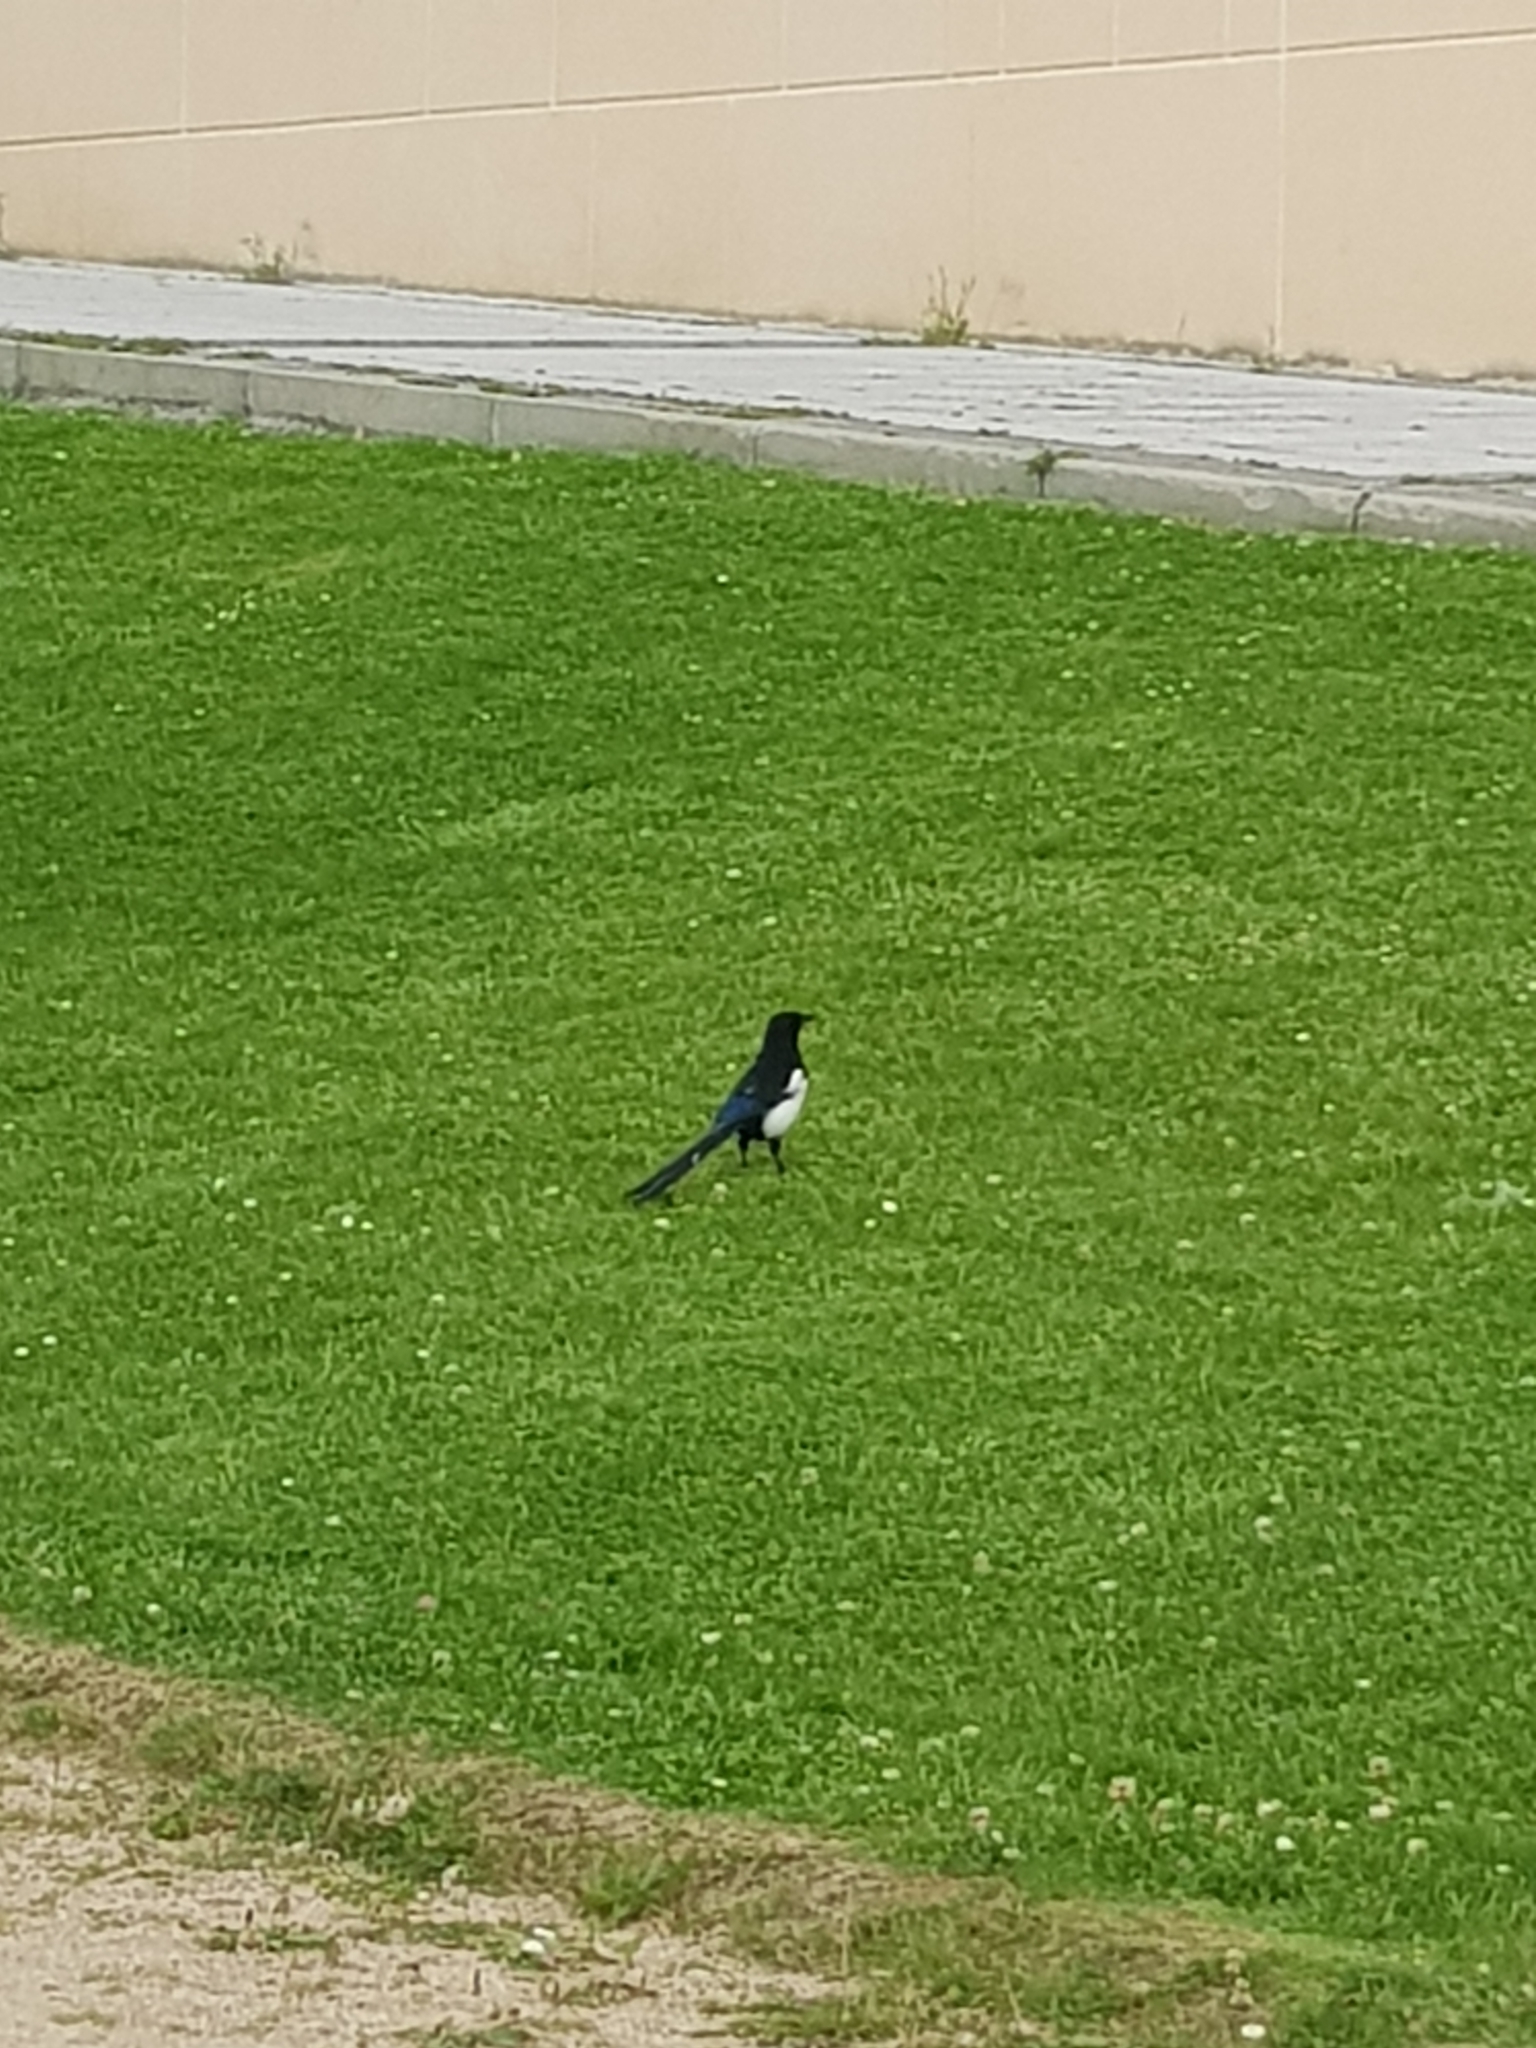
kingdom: Animalia
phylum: Chordata
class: Aves
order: Passeriformes
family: Corvidae
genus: Pica
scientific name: Pica pica
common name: Eurasian magpie
